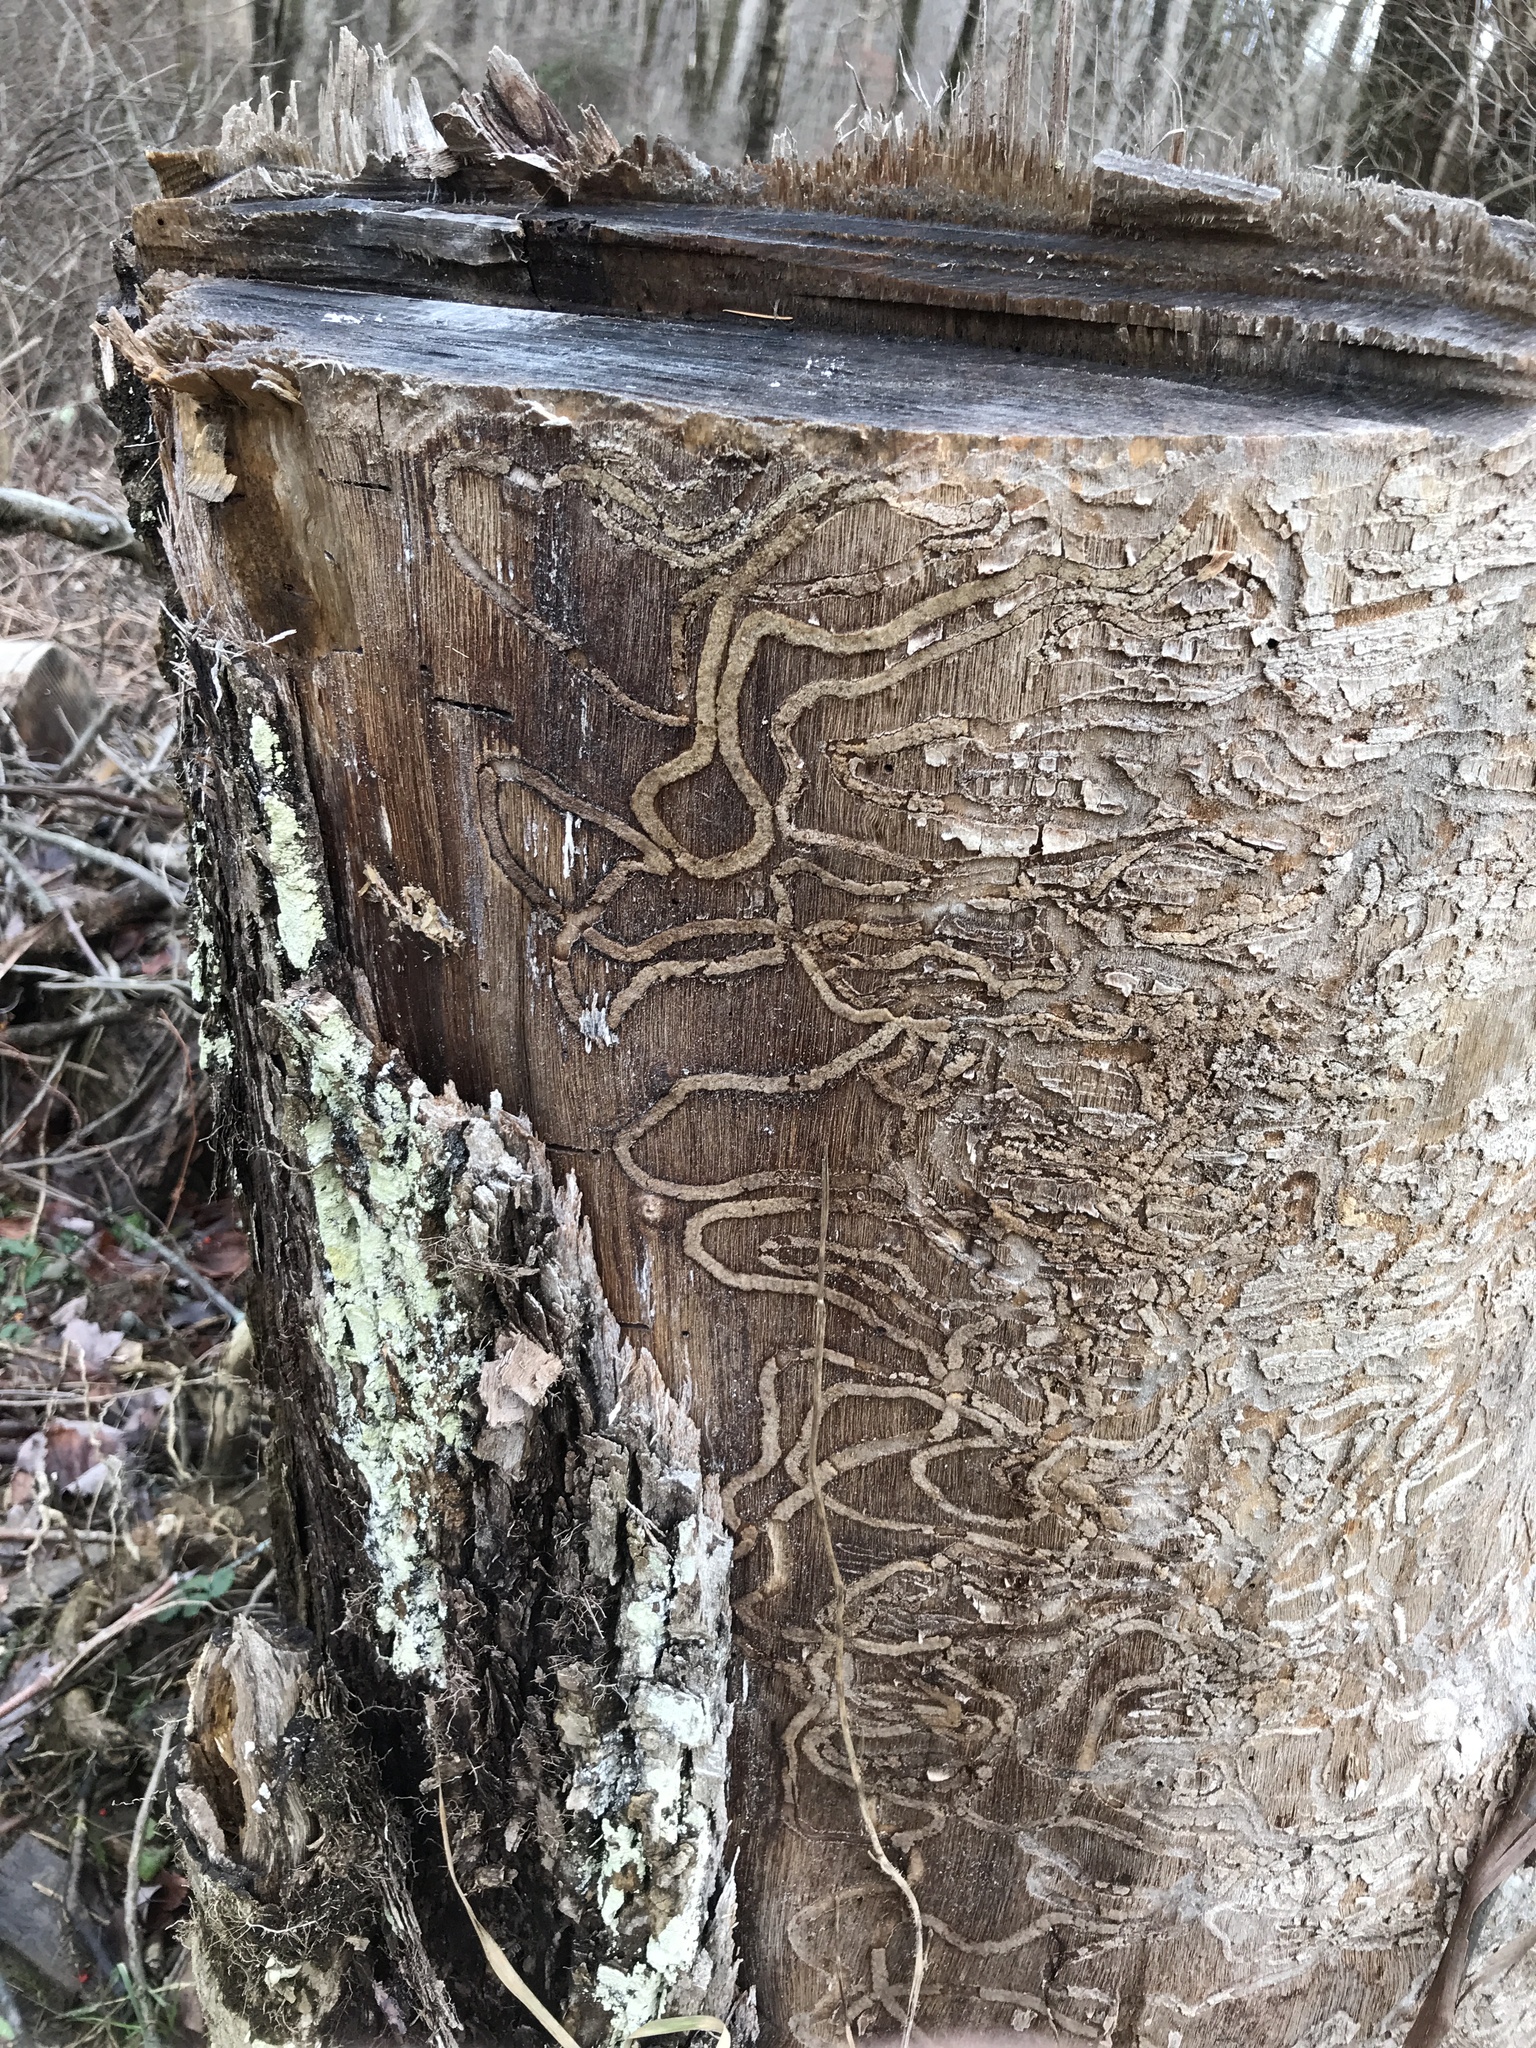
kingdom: Animalia
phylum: Arthropoda
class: Insecta
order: Coleoptera
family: Buprestidae
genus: Agrilus
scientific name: Agrilus planipennis
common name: Emerald ash borer
